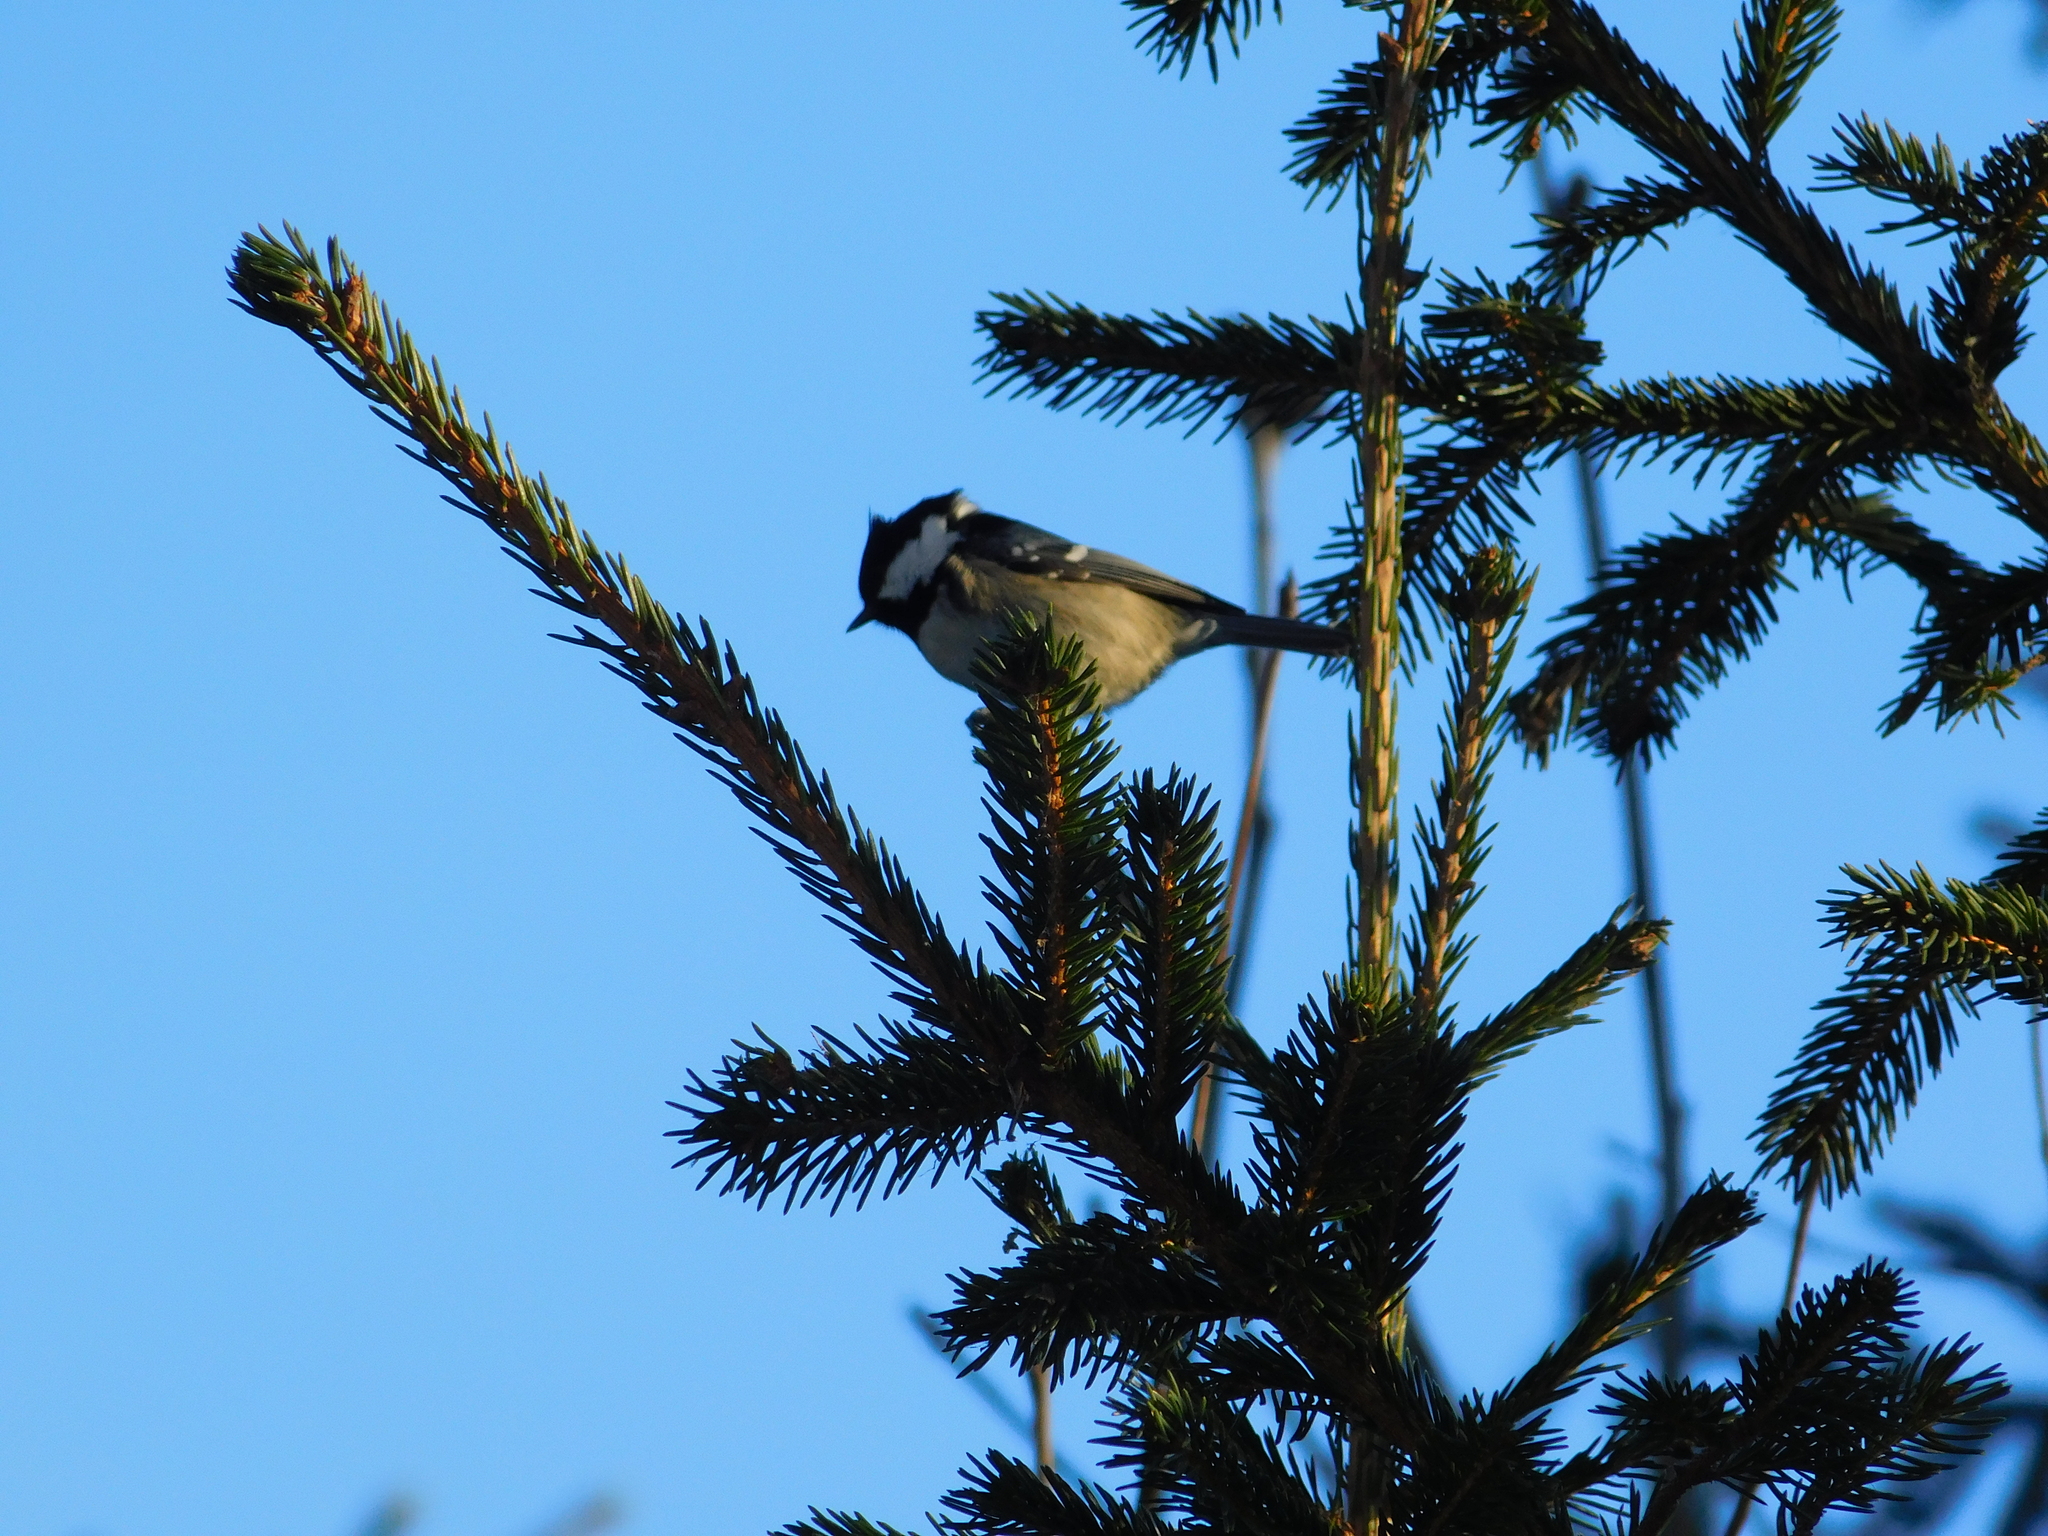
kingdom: Animalia
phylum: Chordata
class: Aves
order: Passeriformes
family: Paridae
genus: Periparus
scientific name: Periparus ater
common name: Coal tit
